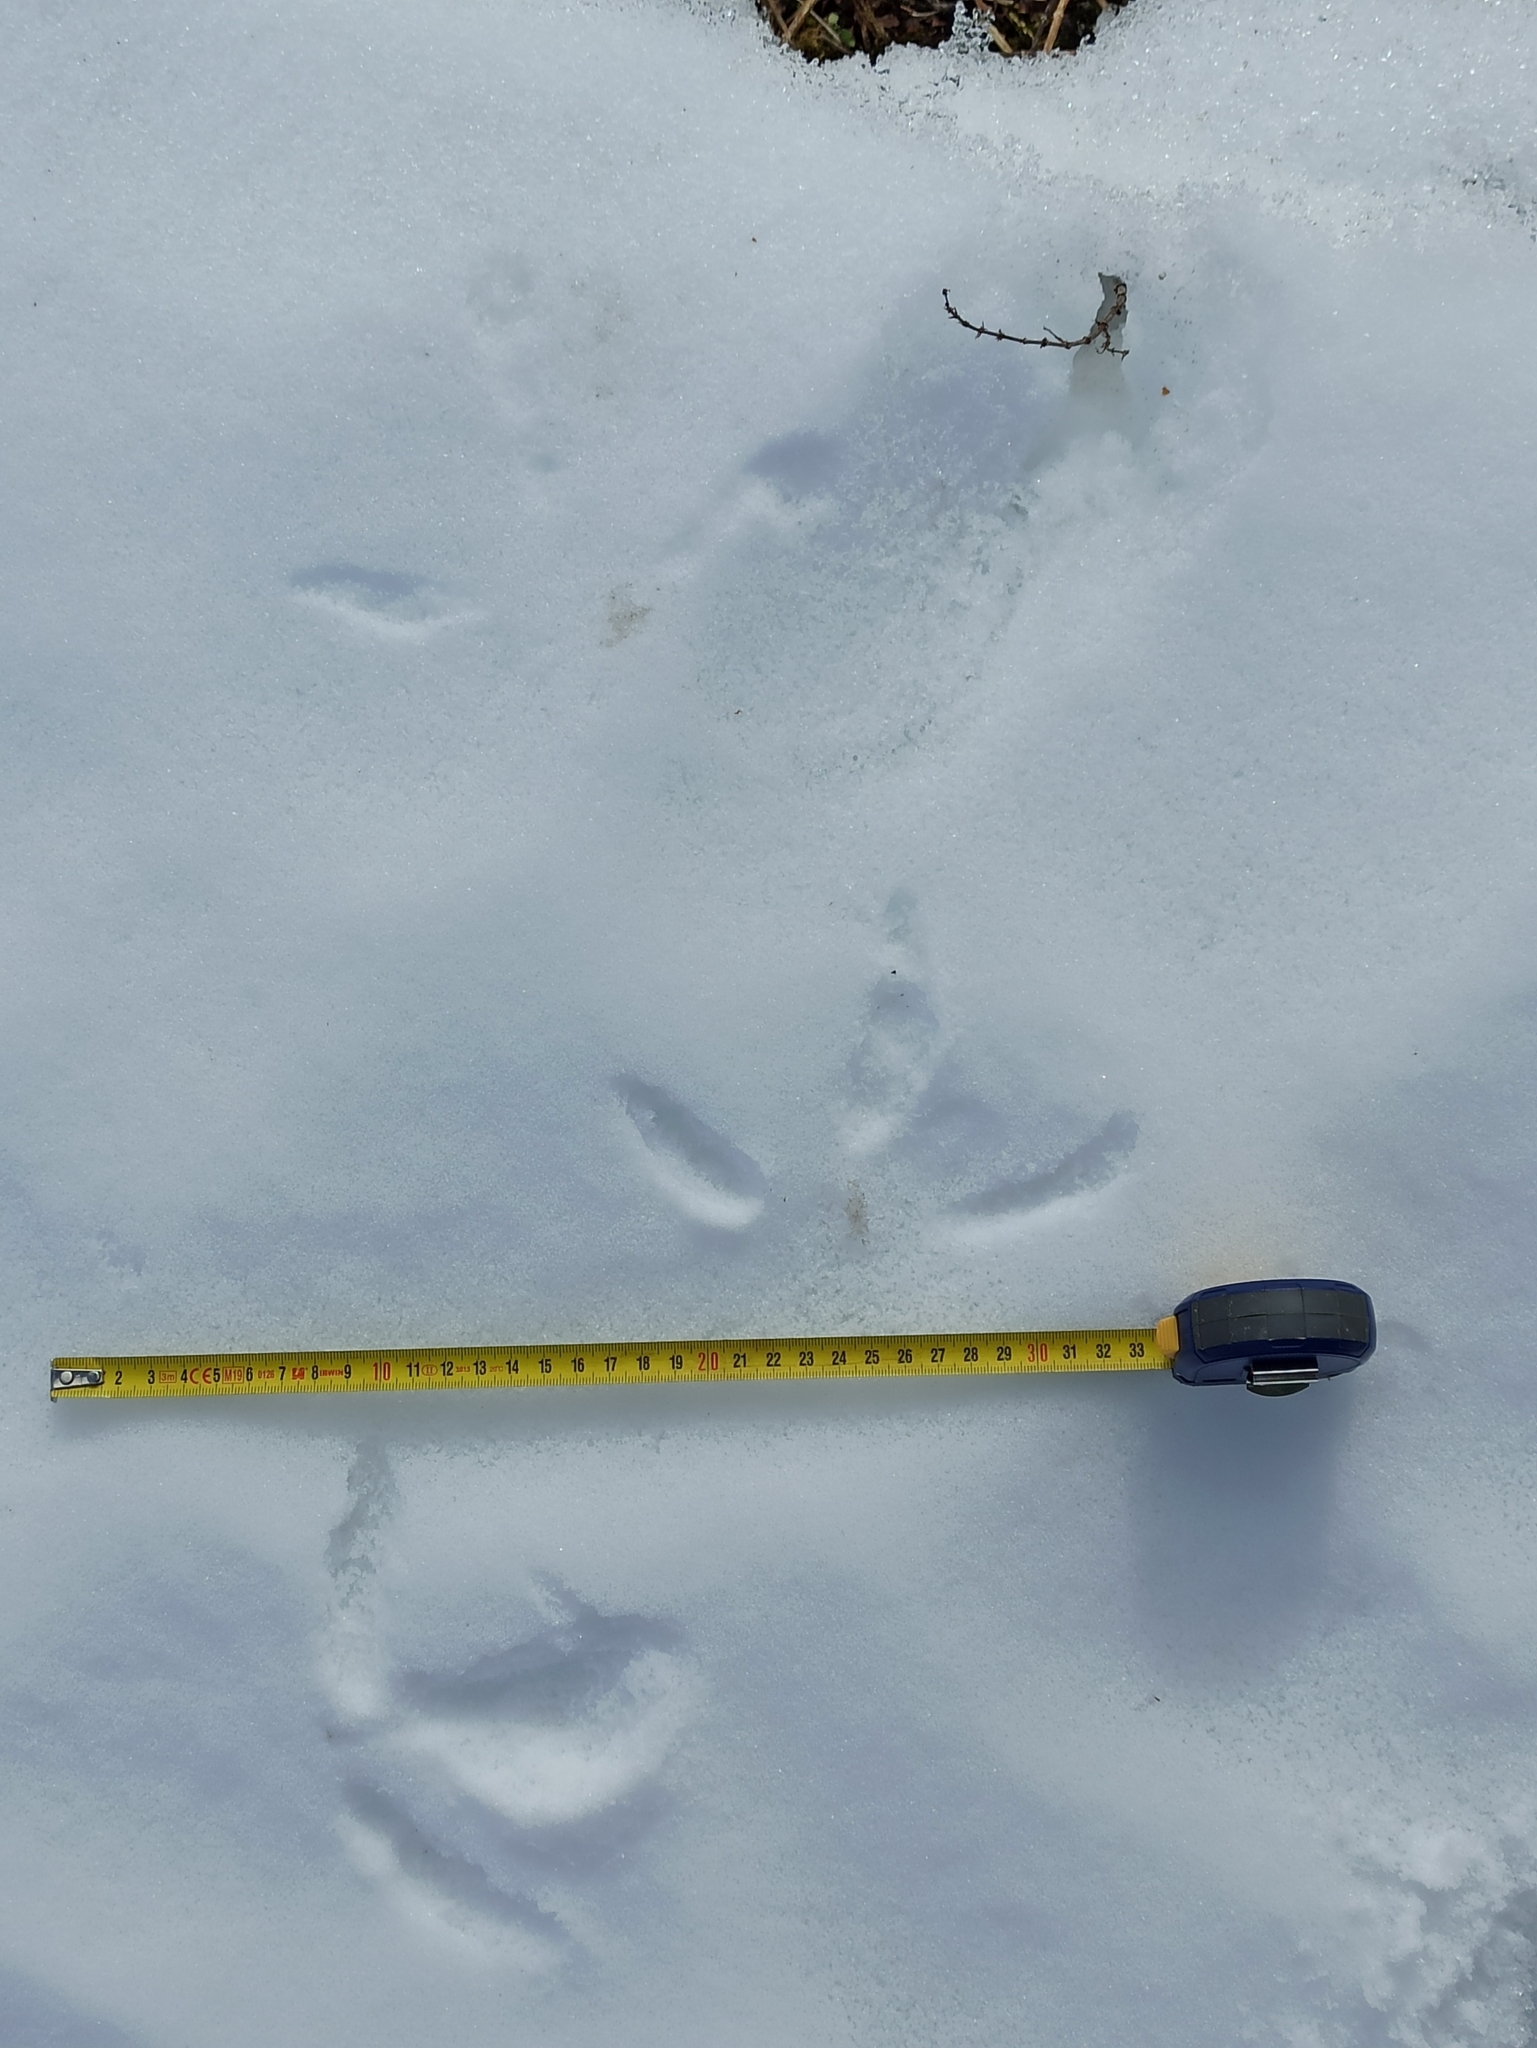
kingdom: Animalia
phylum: Chordata
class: Aves
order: Gruiformes
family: Gruidae
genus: Grus
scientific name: Grus grus
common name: Common crane
